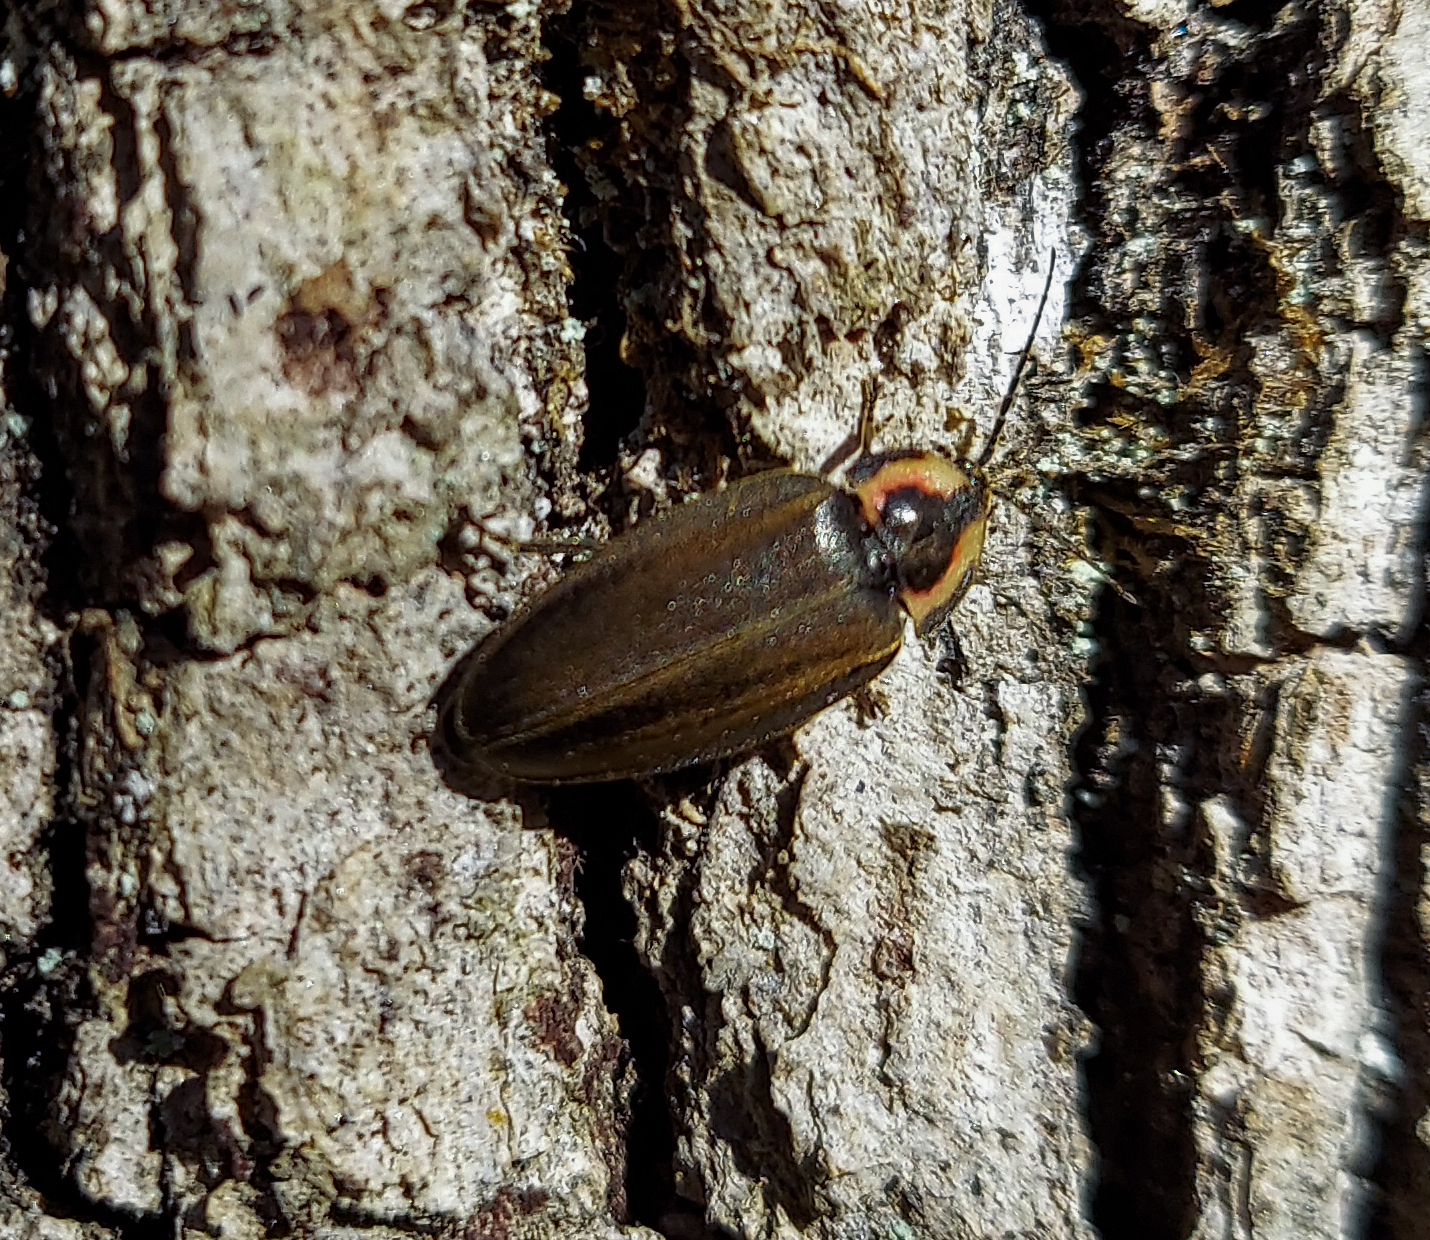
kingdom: Animalia
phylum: Arthropoda
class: Insecta
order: Coleoptera
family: Lampyridae
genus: Photinus
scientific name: Photinus corrusca
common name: Winter firefly
